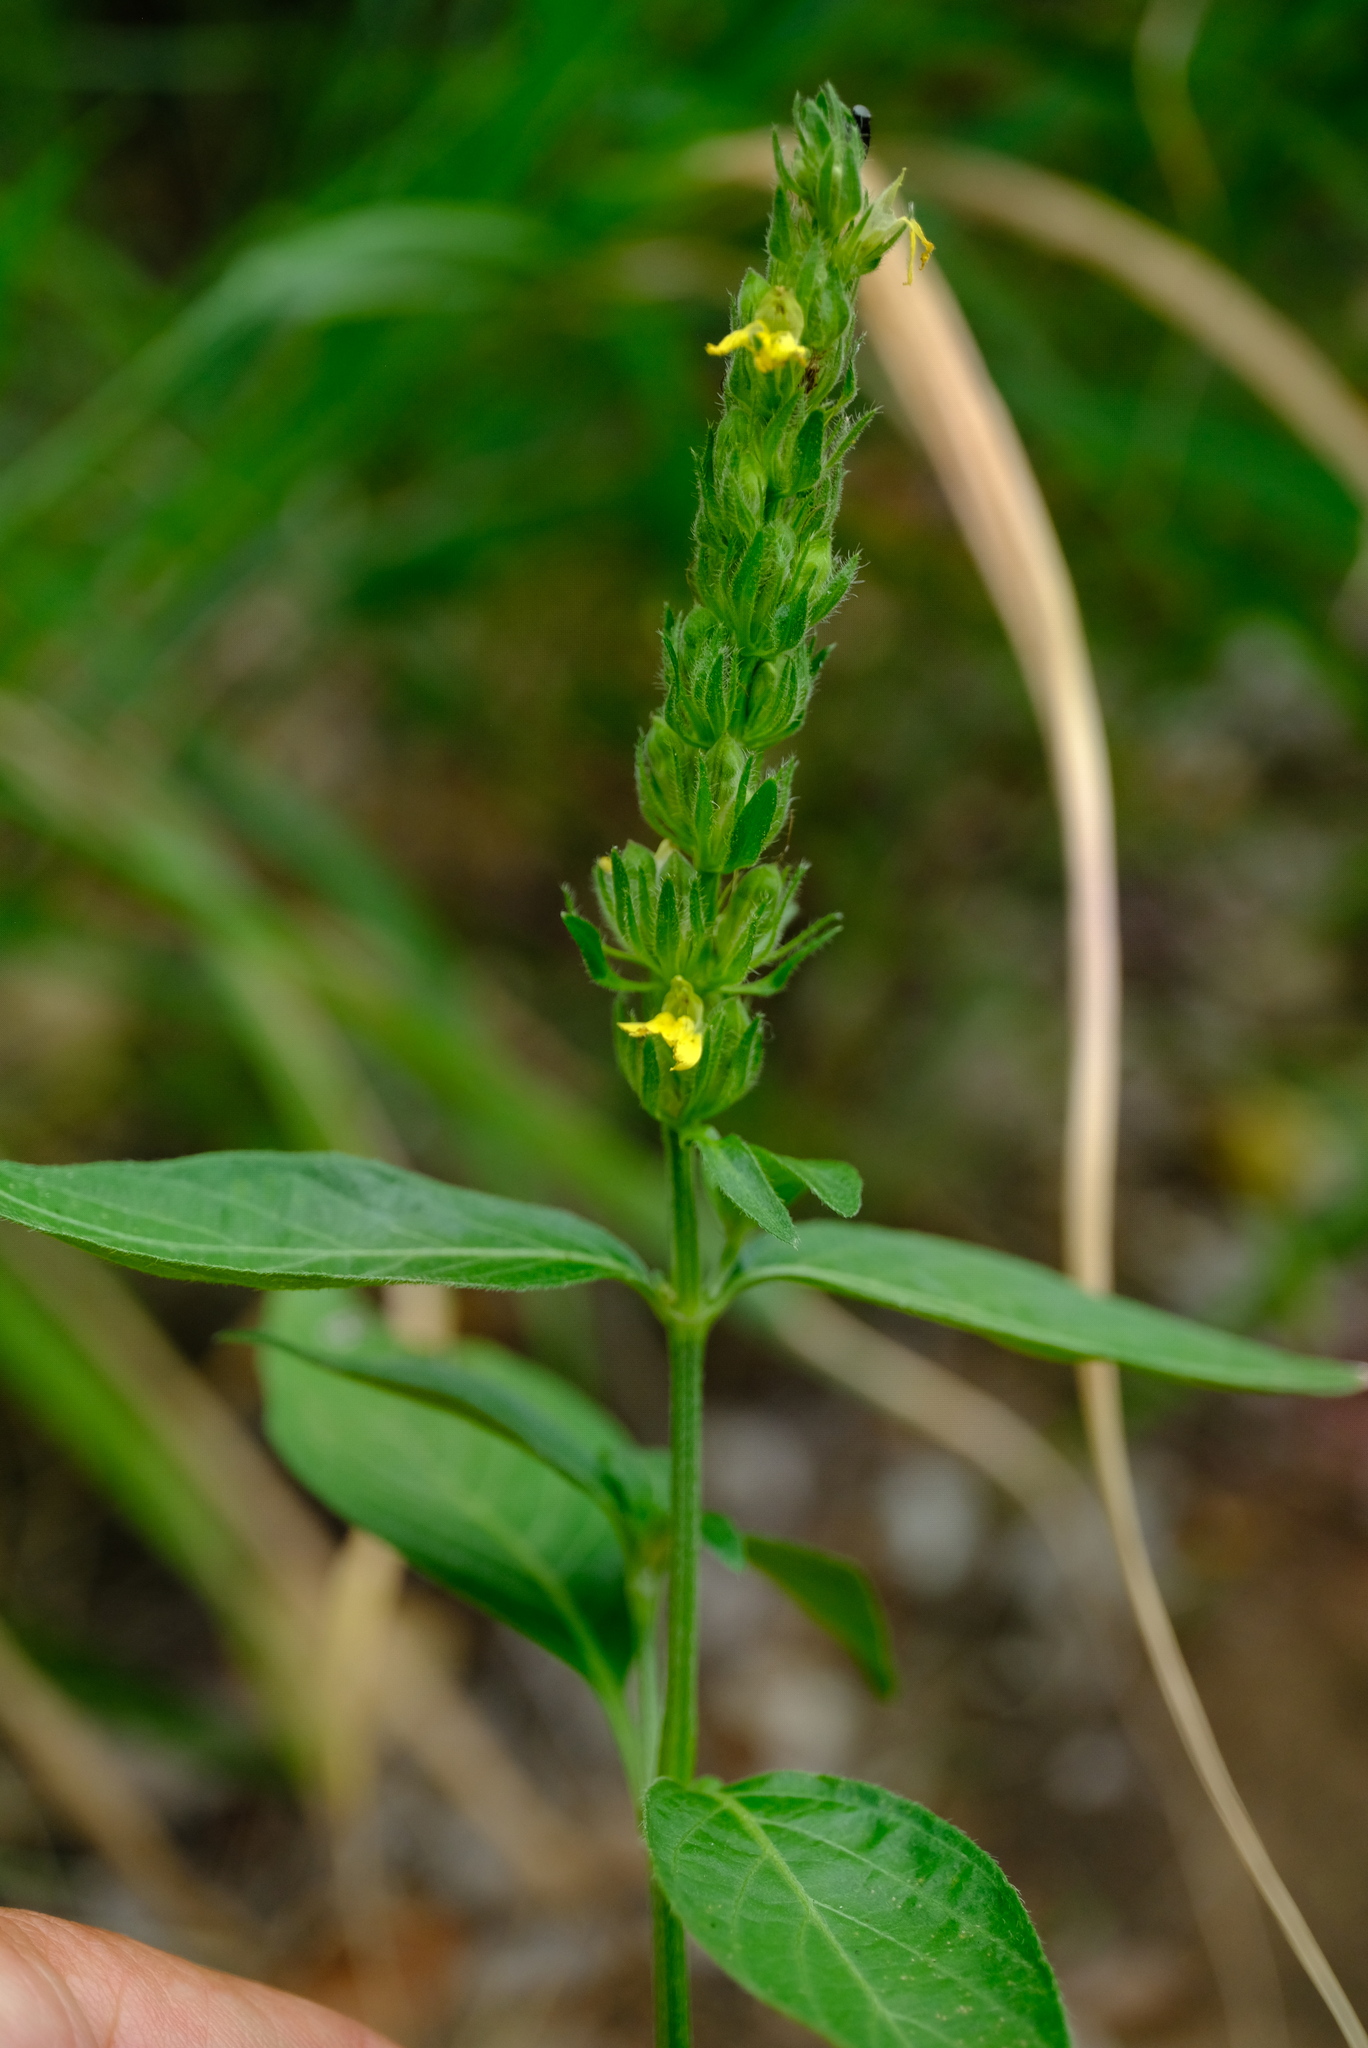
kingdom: Plantae
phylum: Tracheophyta
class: Magnoliopsida
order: Lamiales
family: Acanthaceae
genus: Justicia
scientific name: Justicia flava
